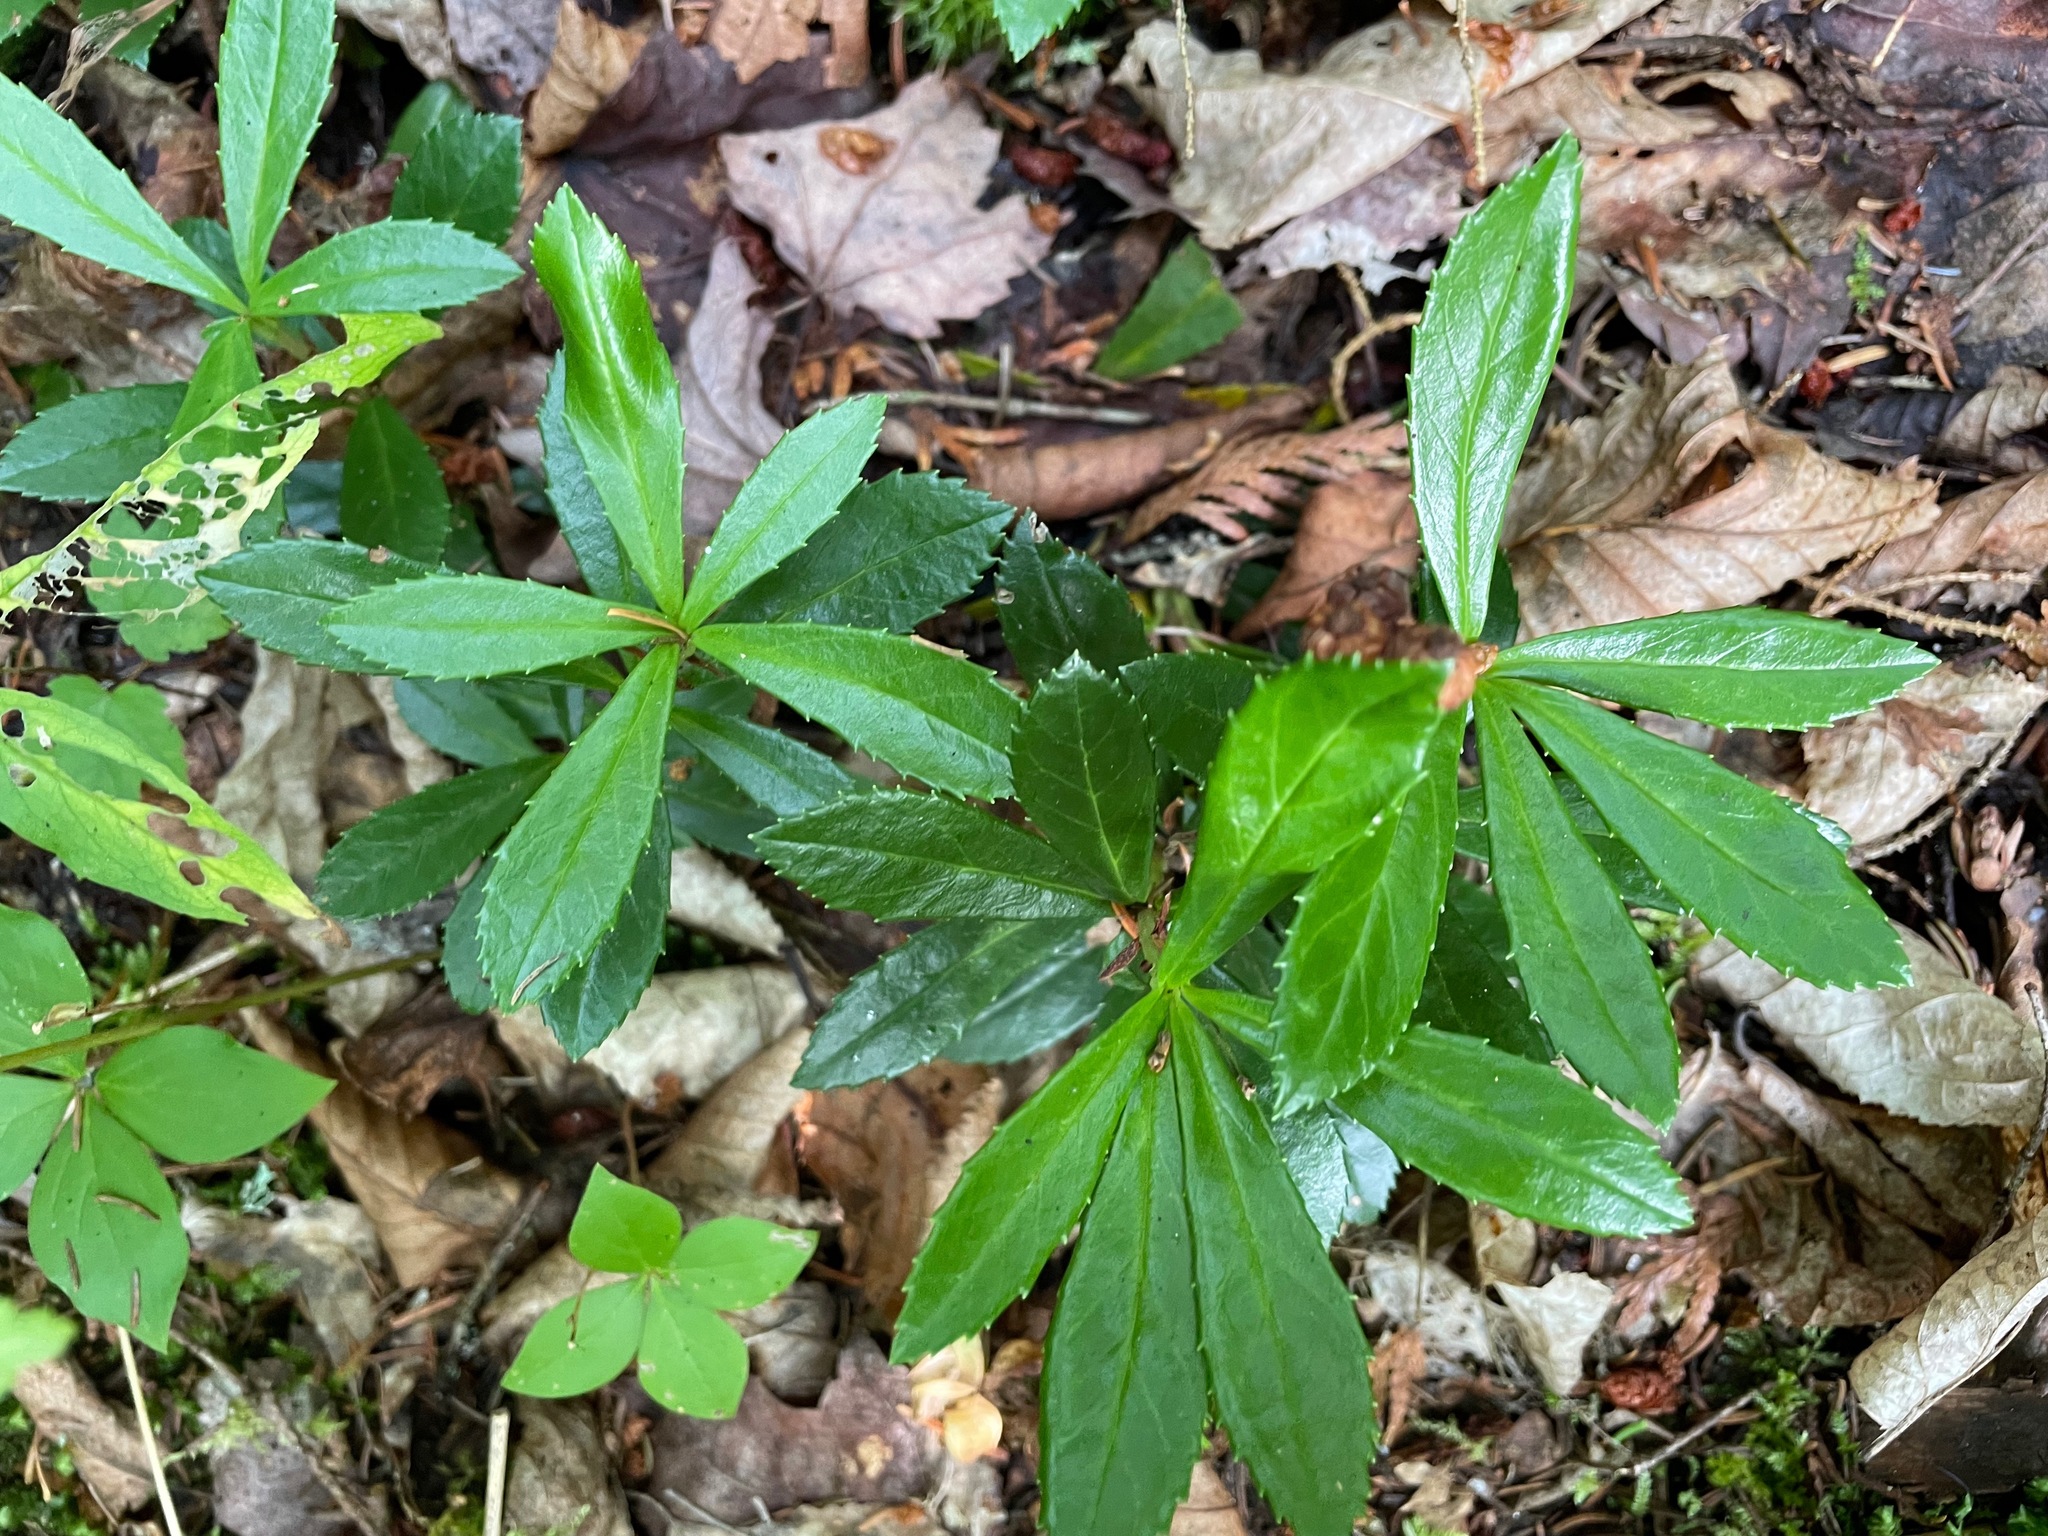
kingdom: Plantae
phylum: Tracheophyta
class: Magnoliopsida
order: Ericales
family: Ericaceae
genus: Chimaphila
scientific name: Chimaphila umbellata
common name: Pipsissewa
